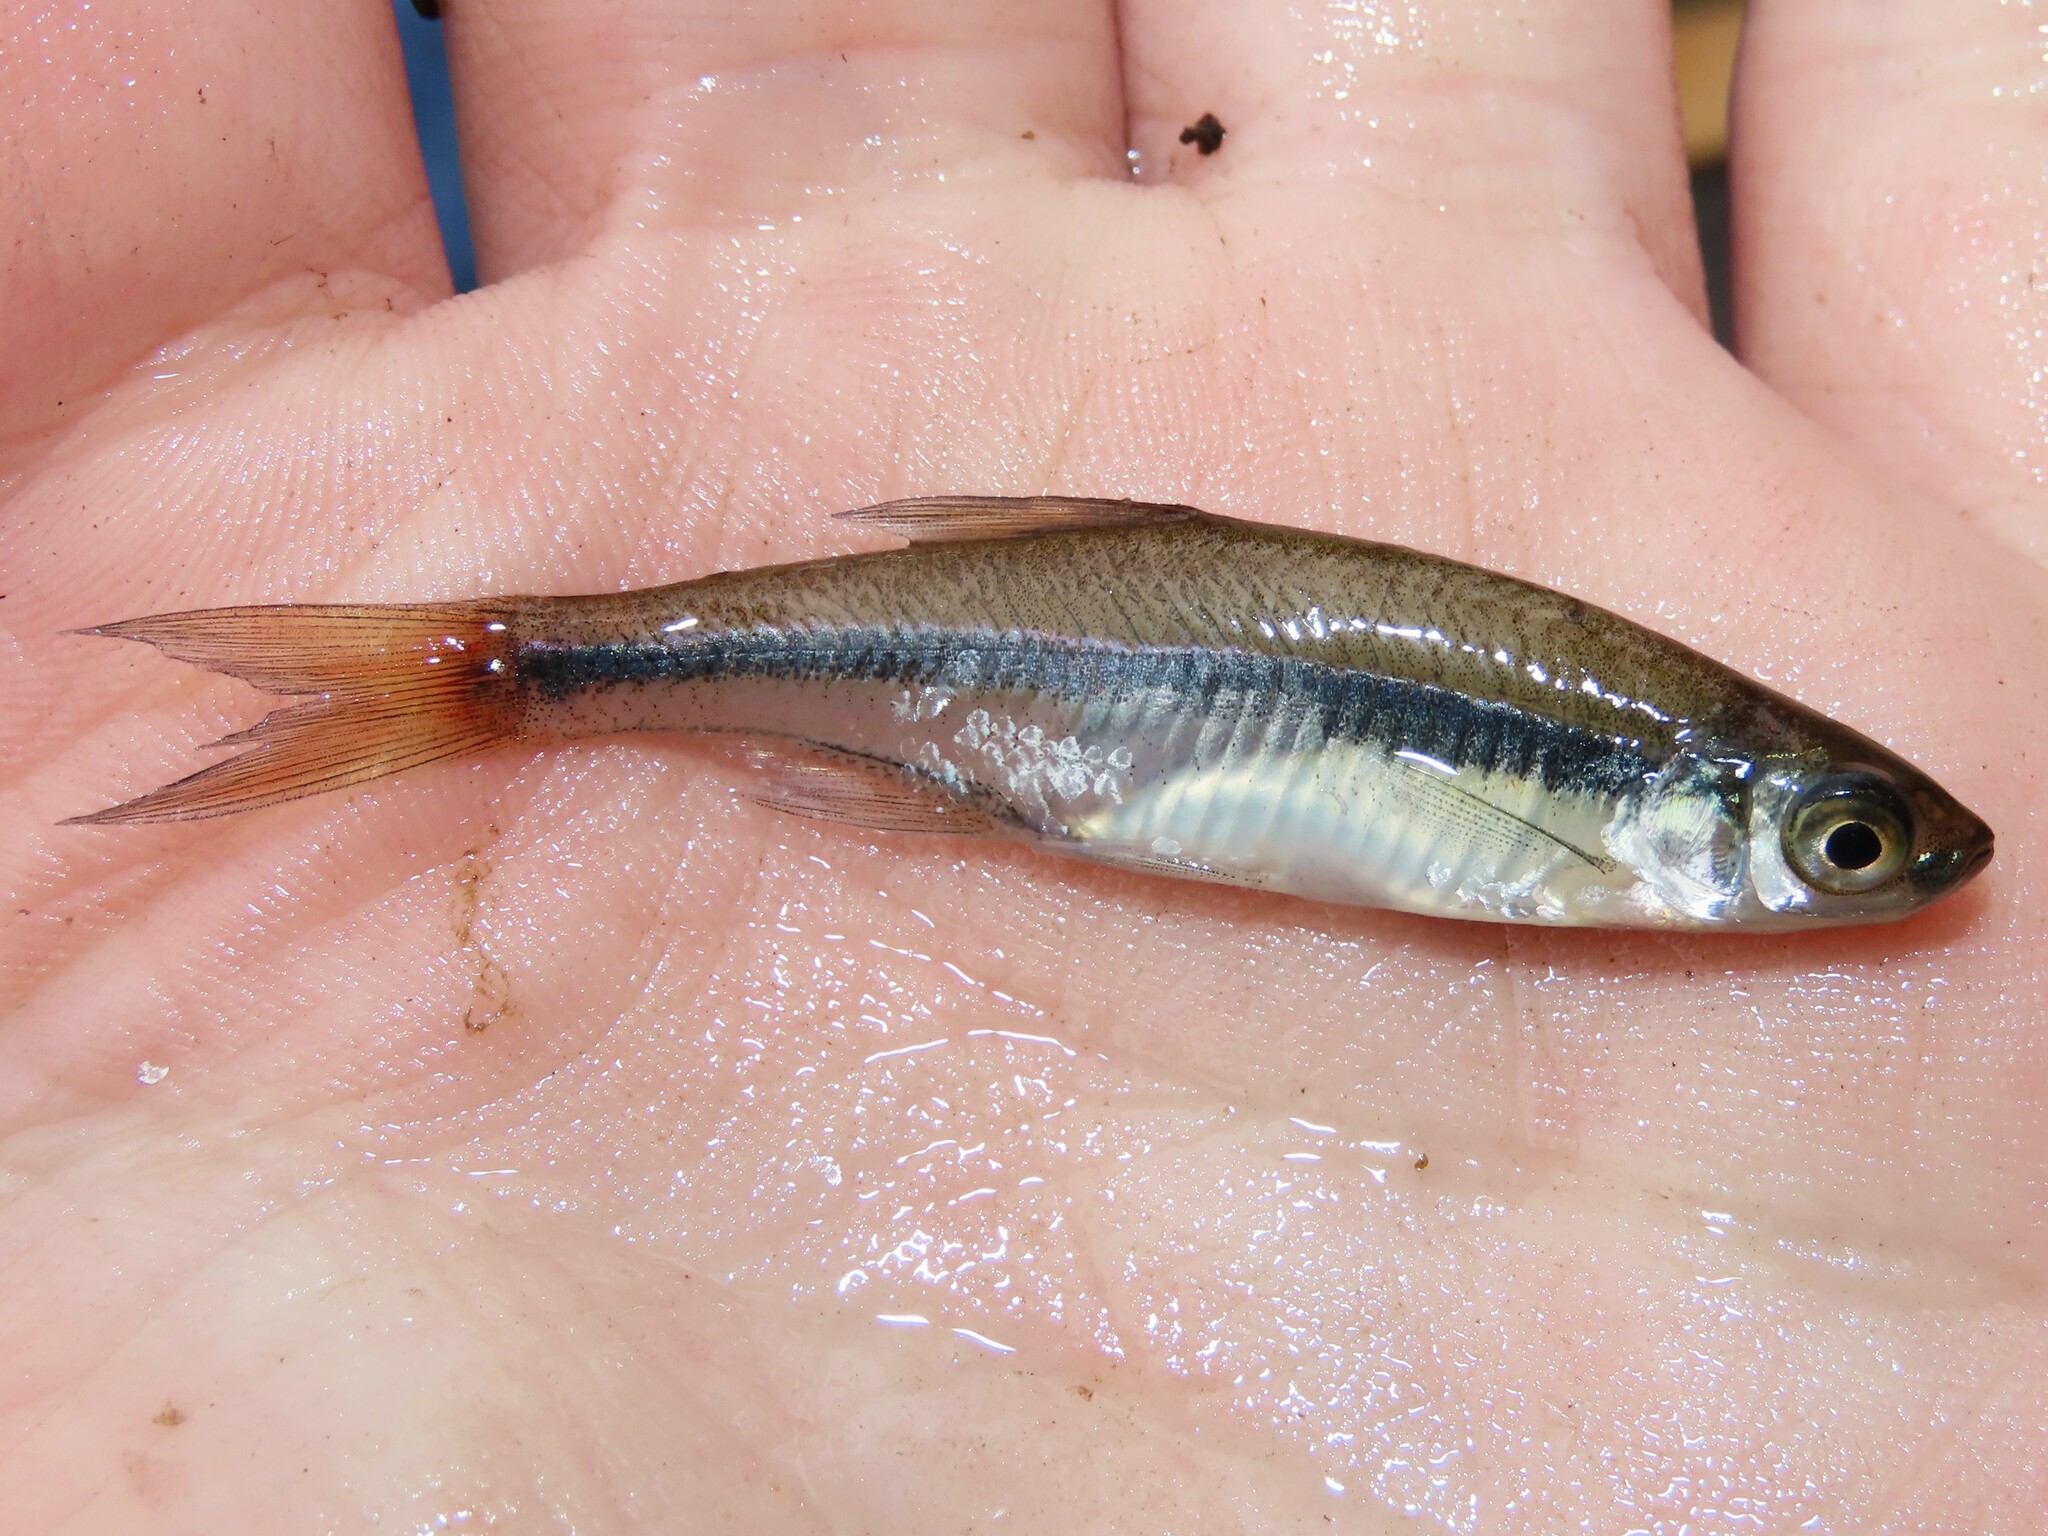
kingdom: Animalia
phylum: Chordata
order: Cypriniformes
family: Cyprinidae
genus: Notemigonus
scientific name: Notemigonus crysoleucas
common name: Golden shiner
